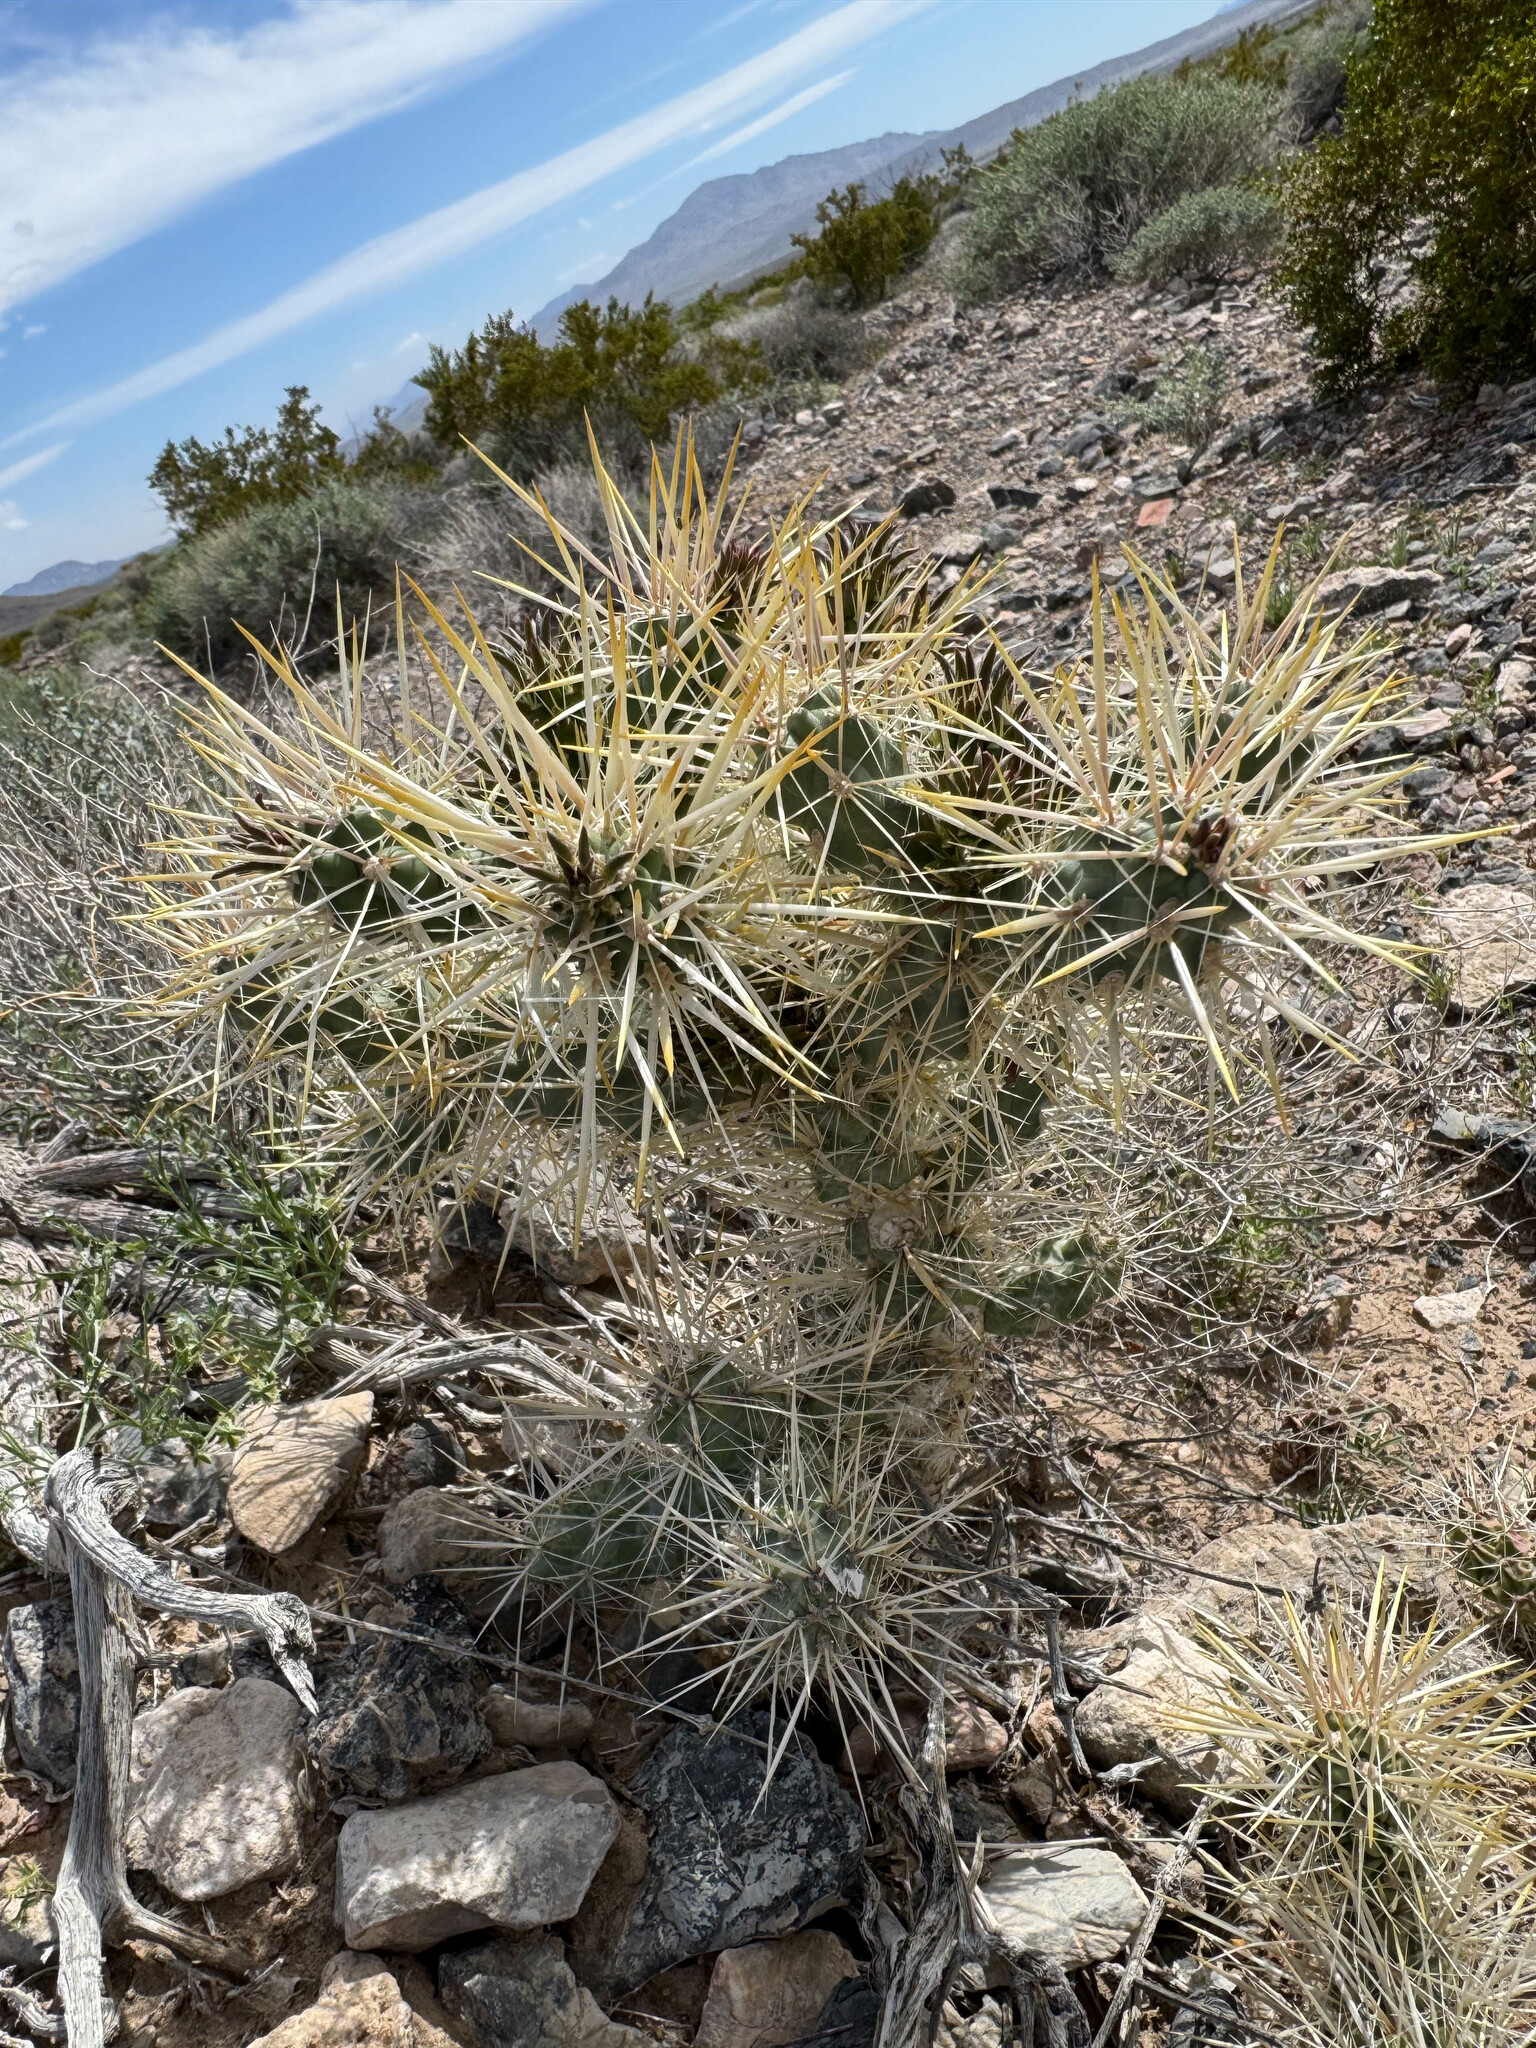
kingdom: Plantae
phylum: Tracheophyta
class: Magnoliopsida
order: Caryophyllales
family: Cactaceae
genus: Cylindropuntia
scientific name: Cylindropuntia echinocarpa
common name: Ground cholla
